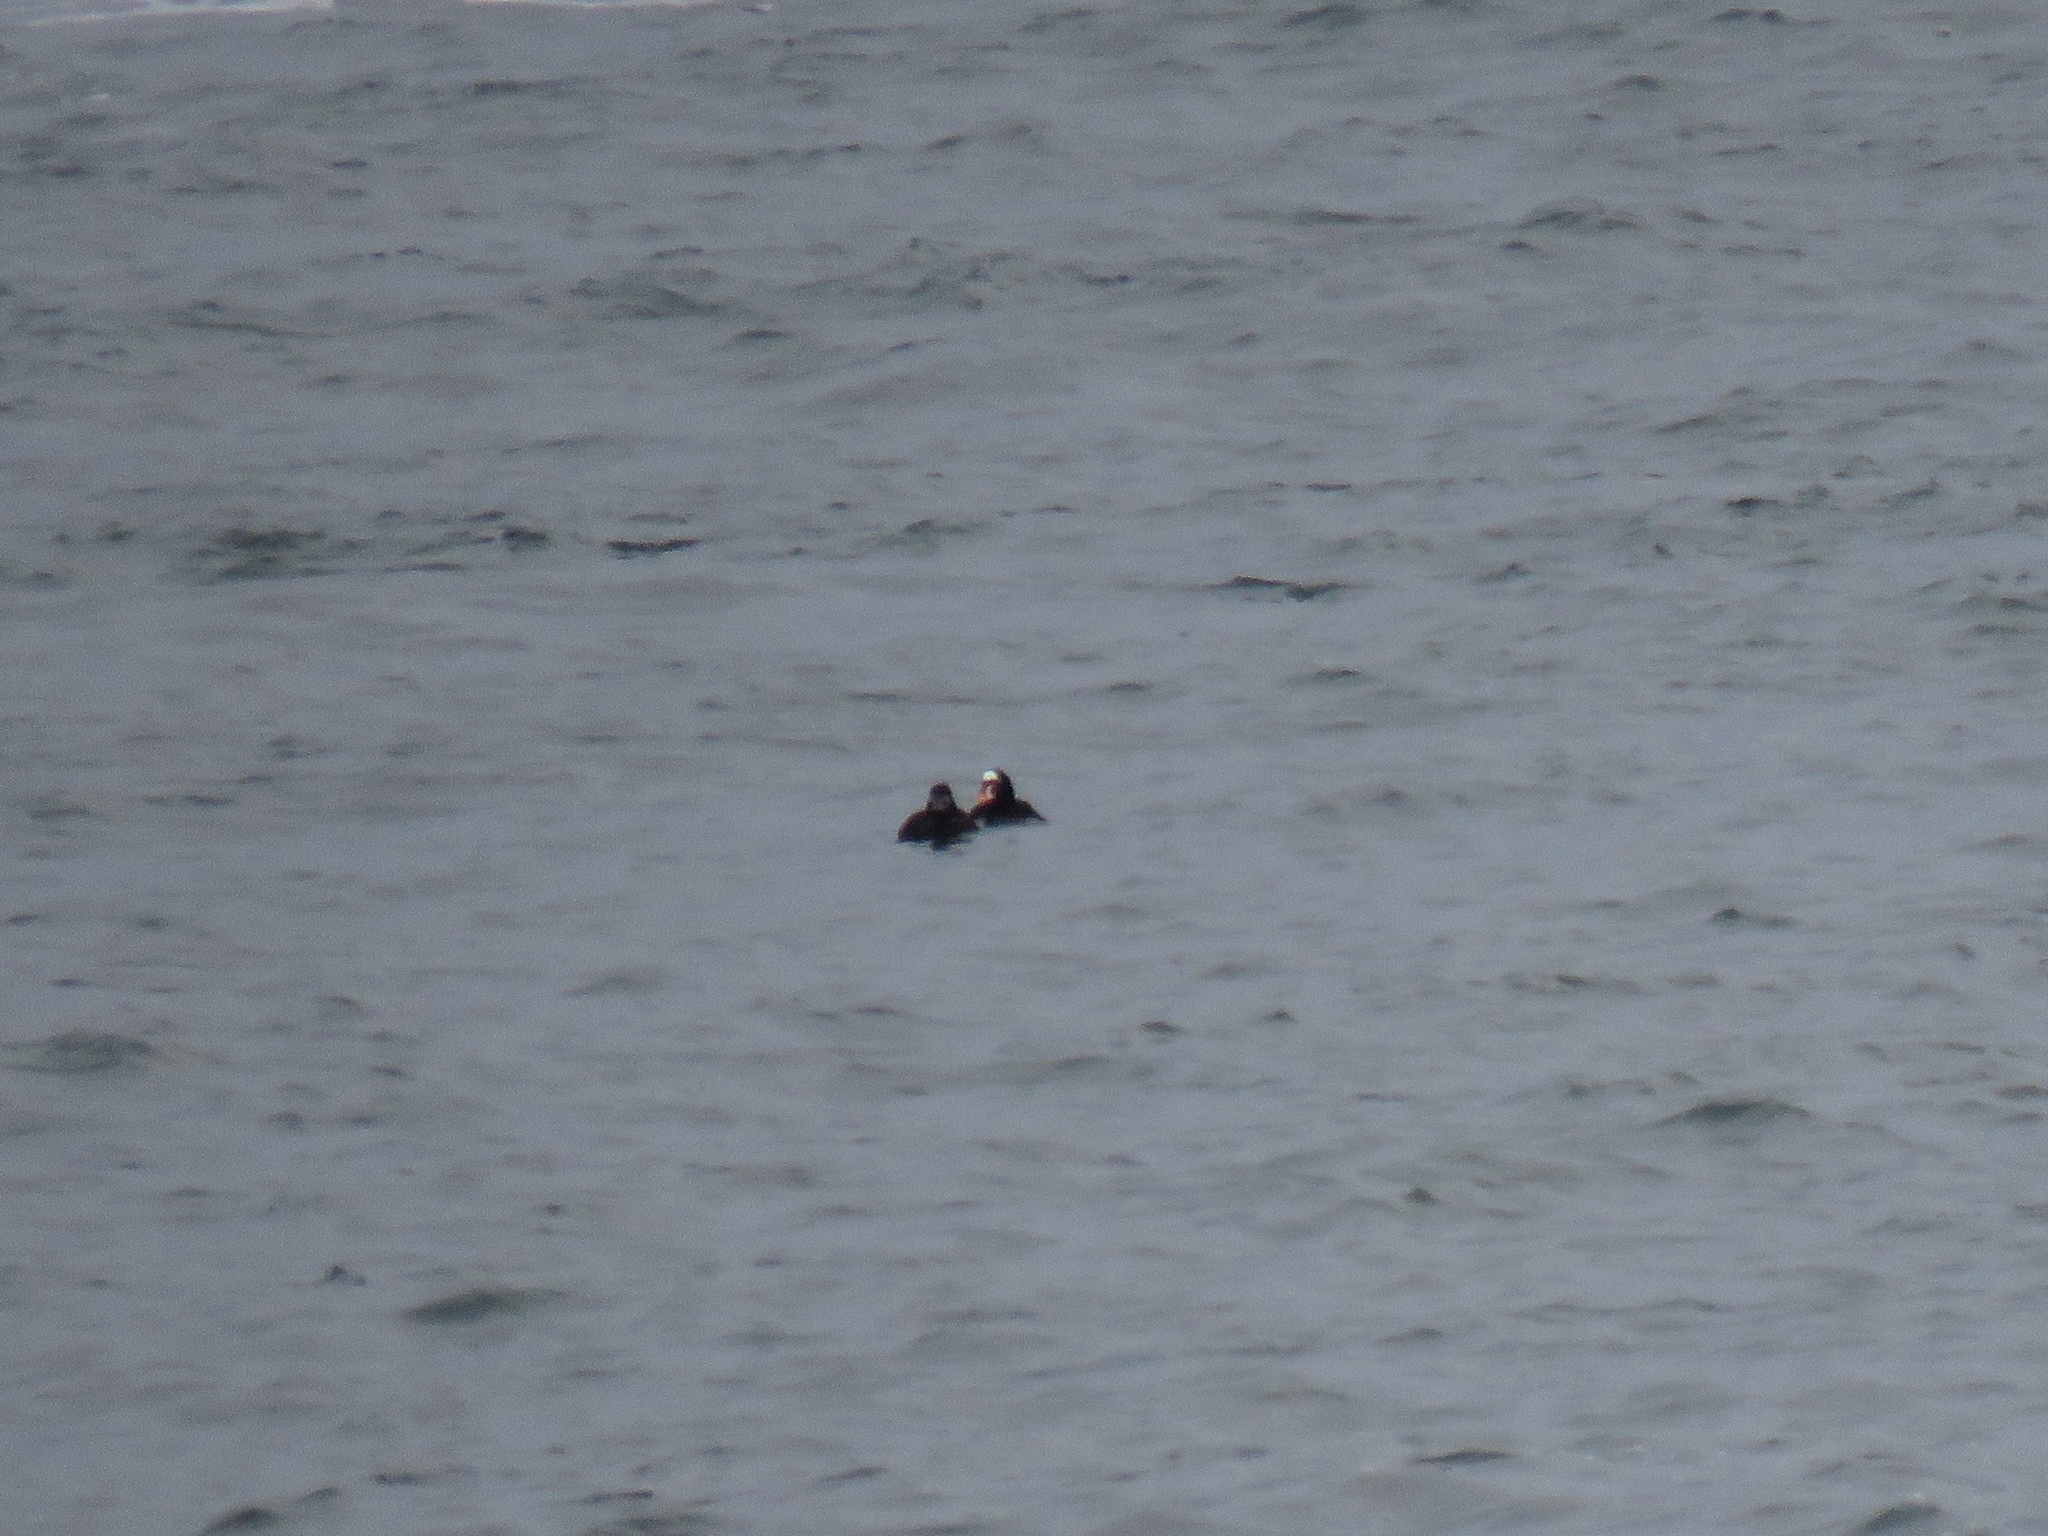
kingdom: Animalia
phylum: Chordata
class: Aves
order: Anseriformes
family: Anatidae
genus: Melanitta
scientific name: Melanitta perspicillata
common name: Surf scoter
